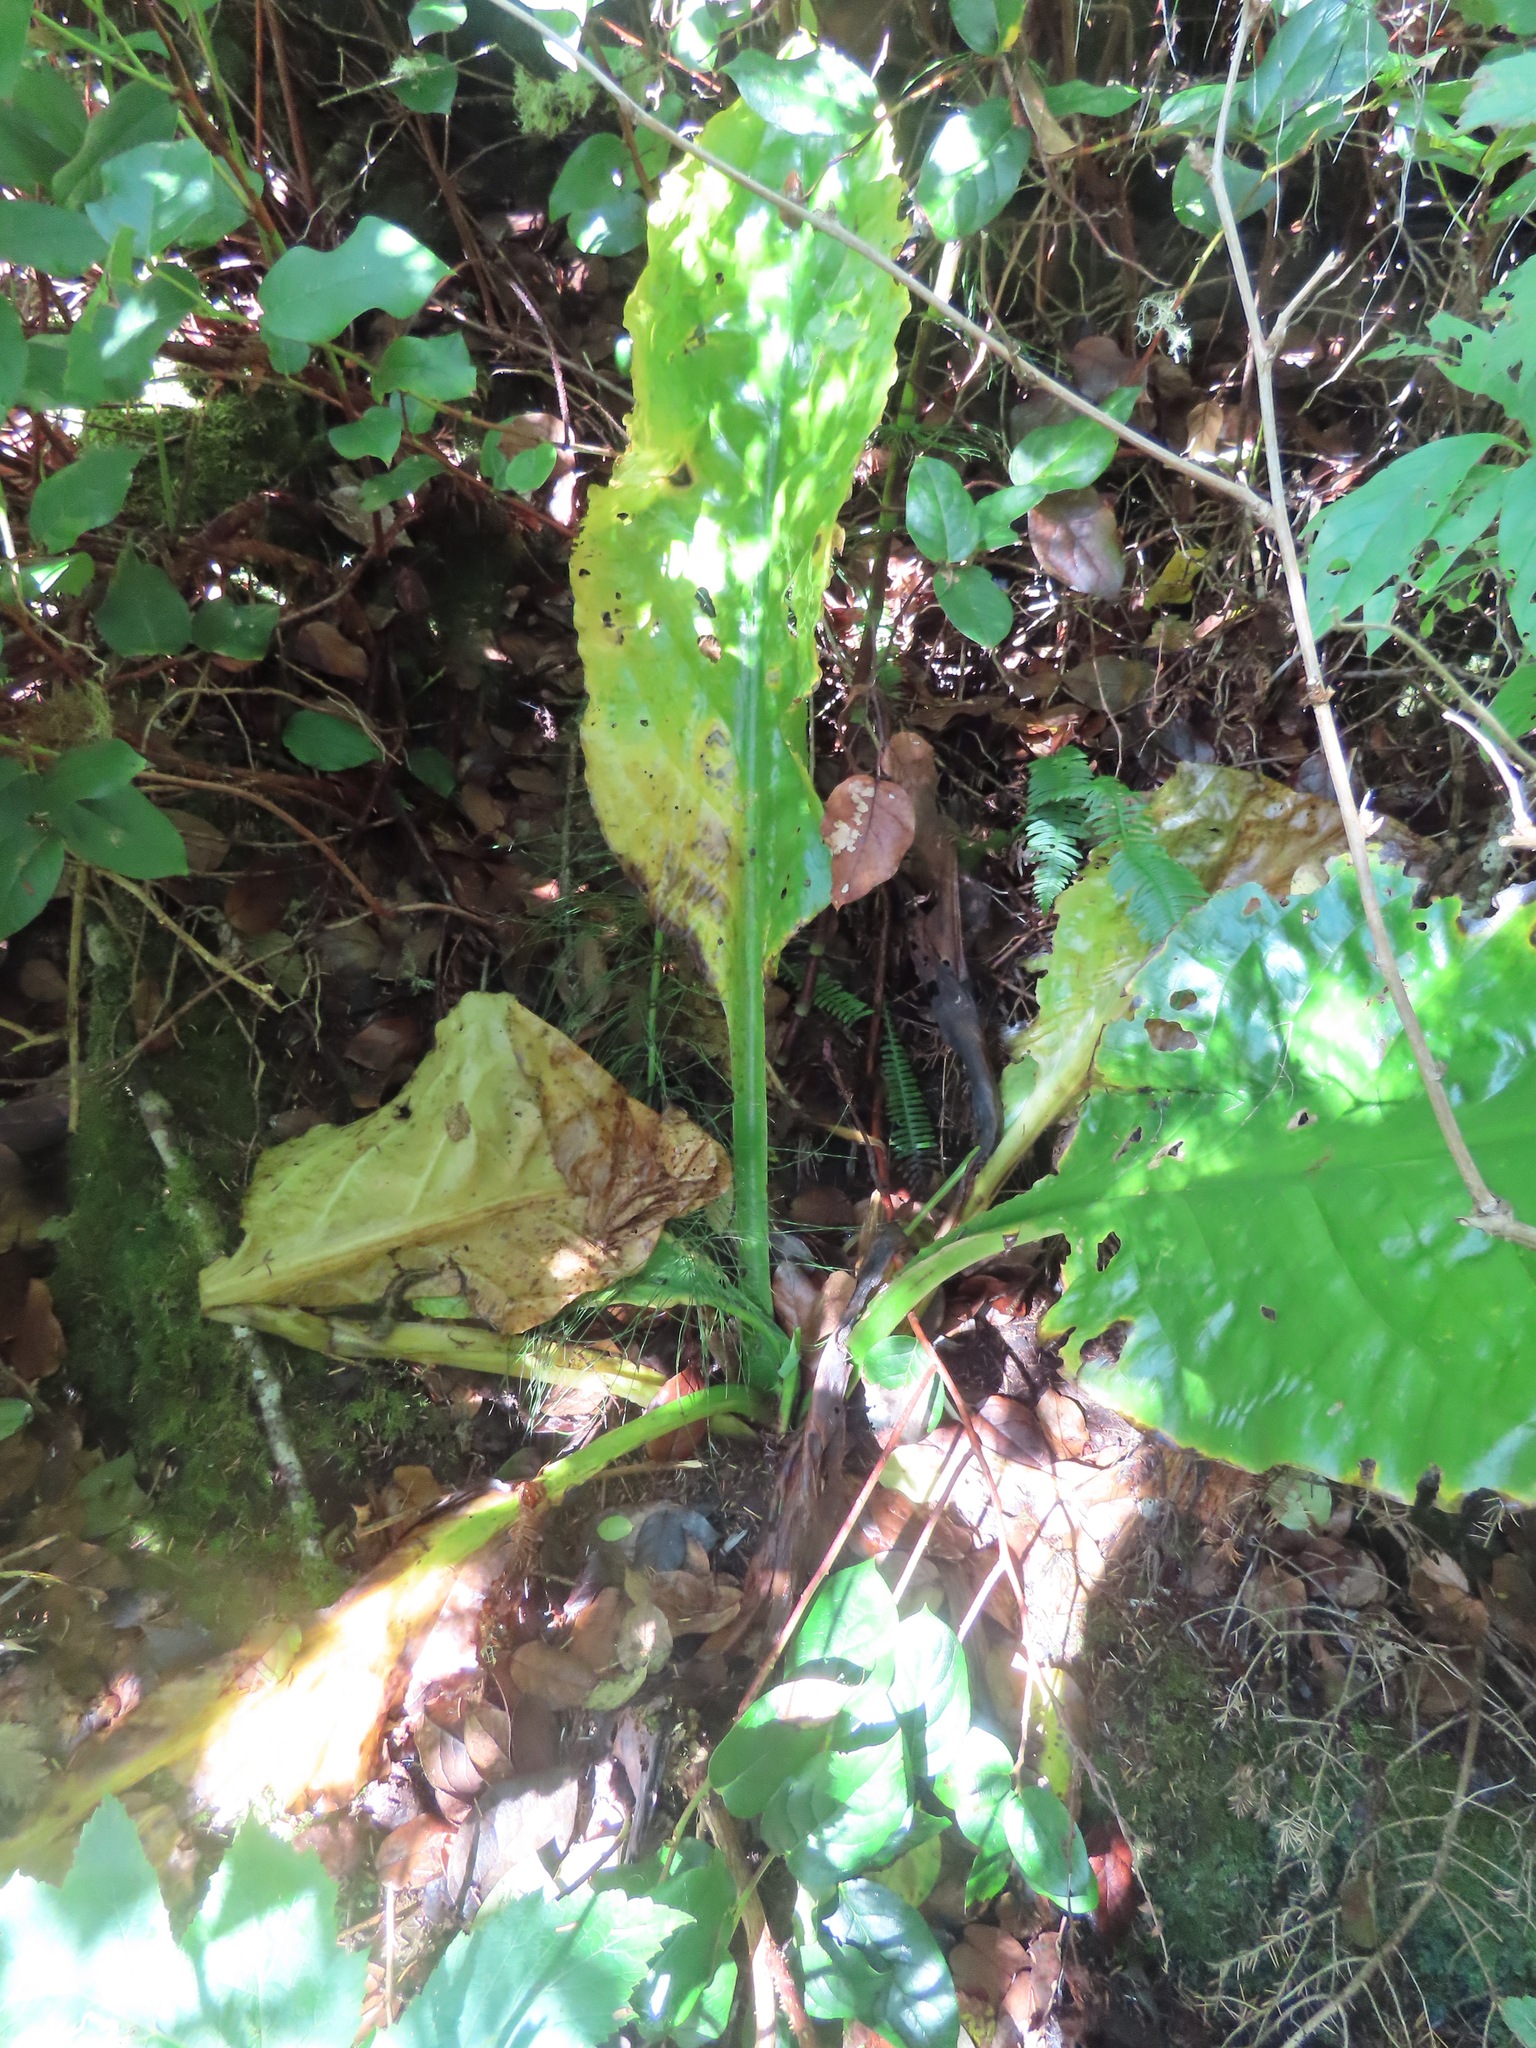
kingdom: Plantae
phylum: Tracheophyta
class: Liliopsida
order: Alismatales
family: Araceae
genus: Lysichiton
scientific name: Lysichiton americanus
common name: American skunk cabbage
